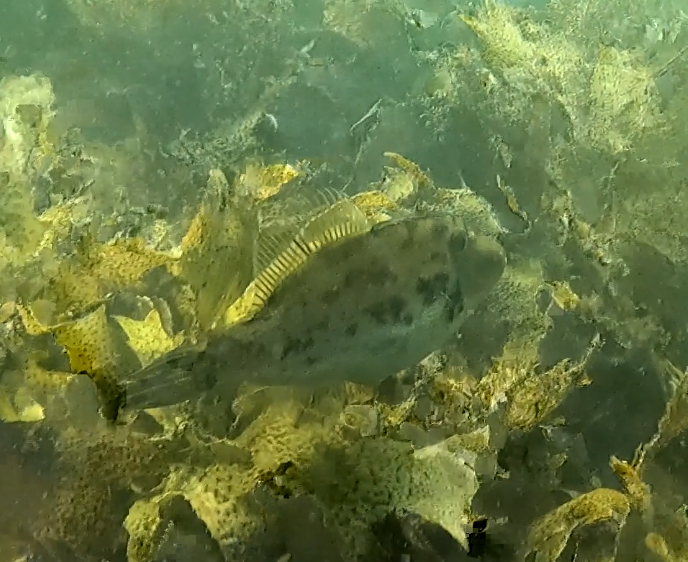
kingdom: Animalia
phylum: Chordata
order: Tetraodontiformes
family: Monacanthidae
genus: Scobinichthys
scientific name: Scobinichthys granulatus
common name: Rough leatherjacket
